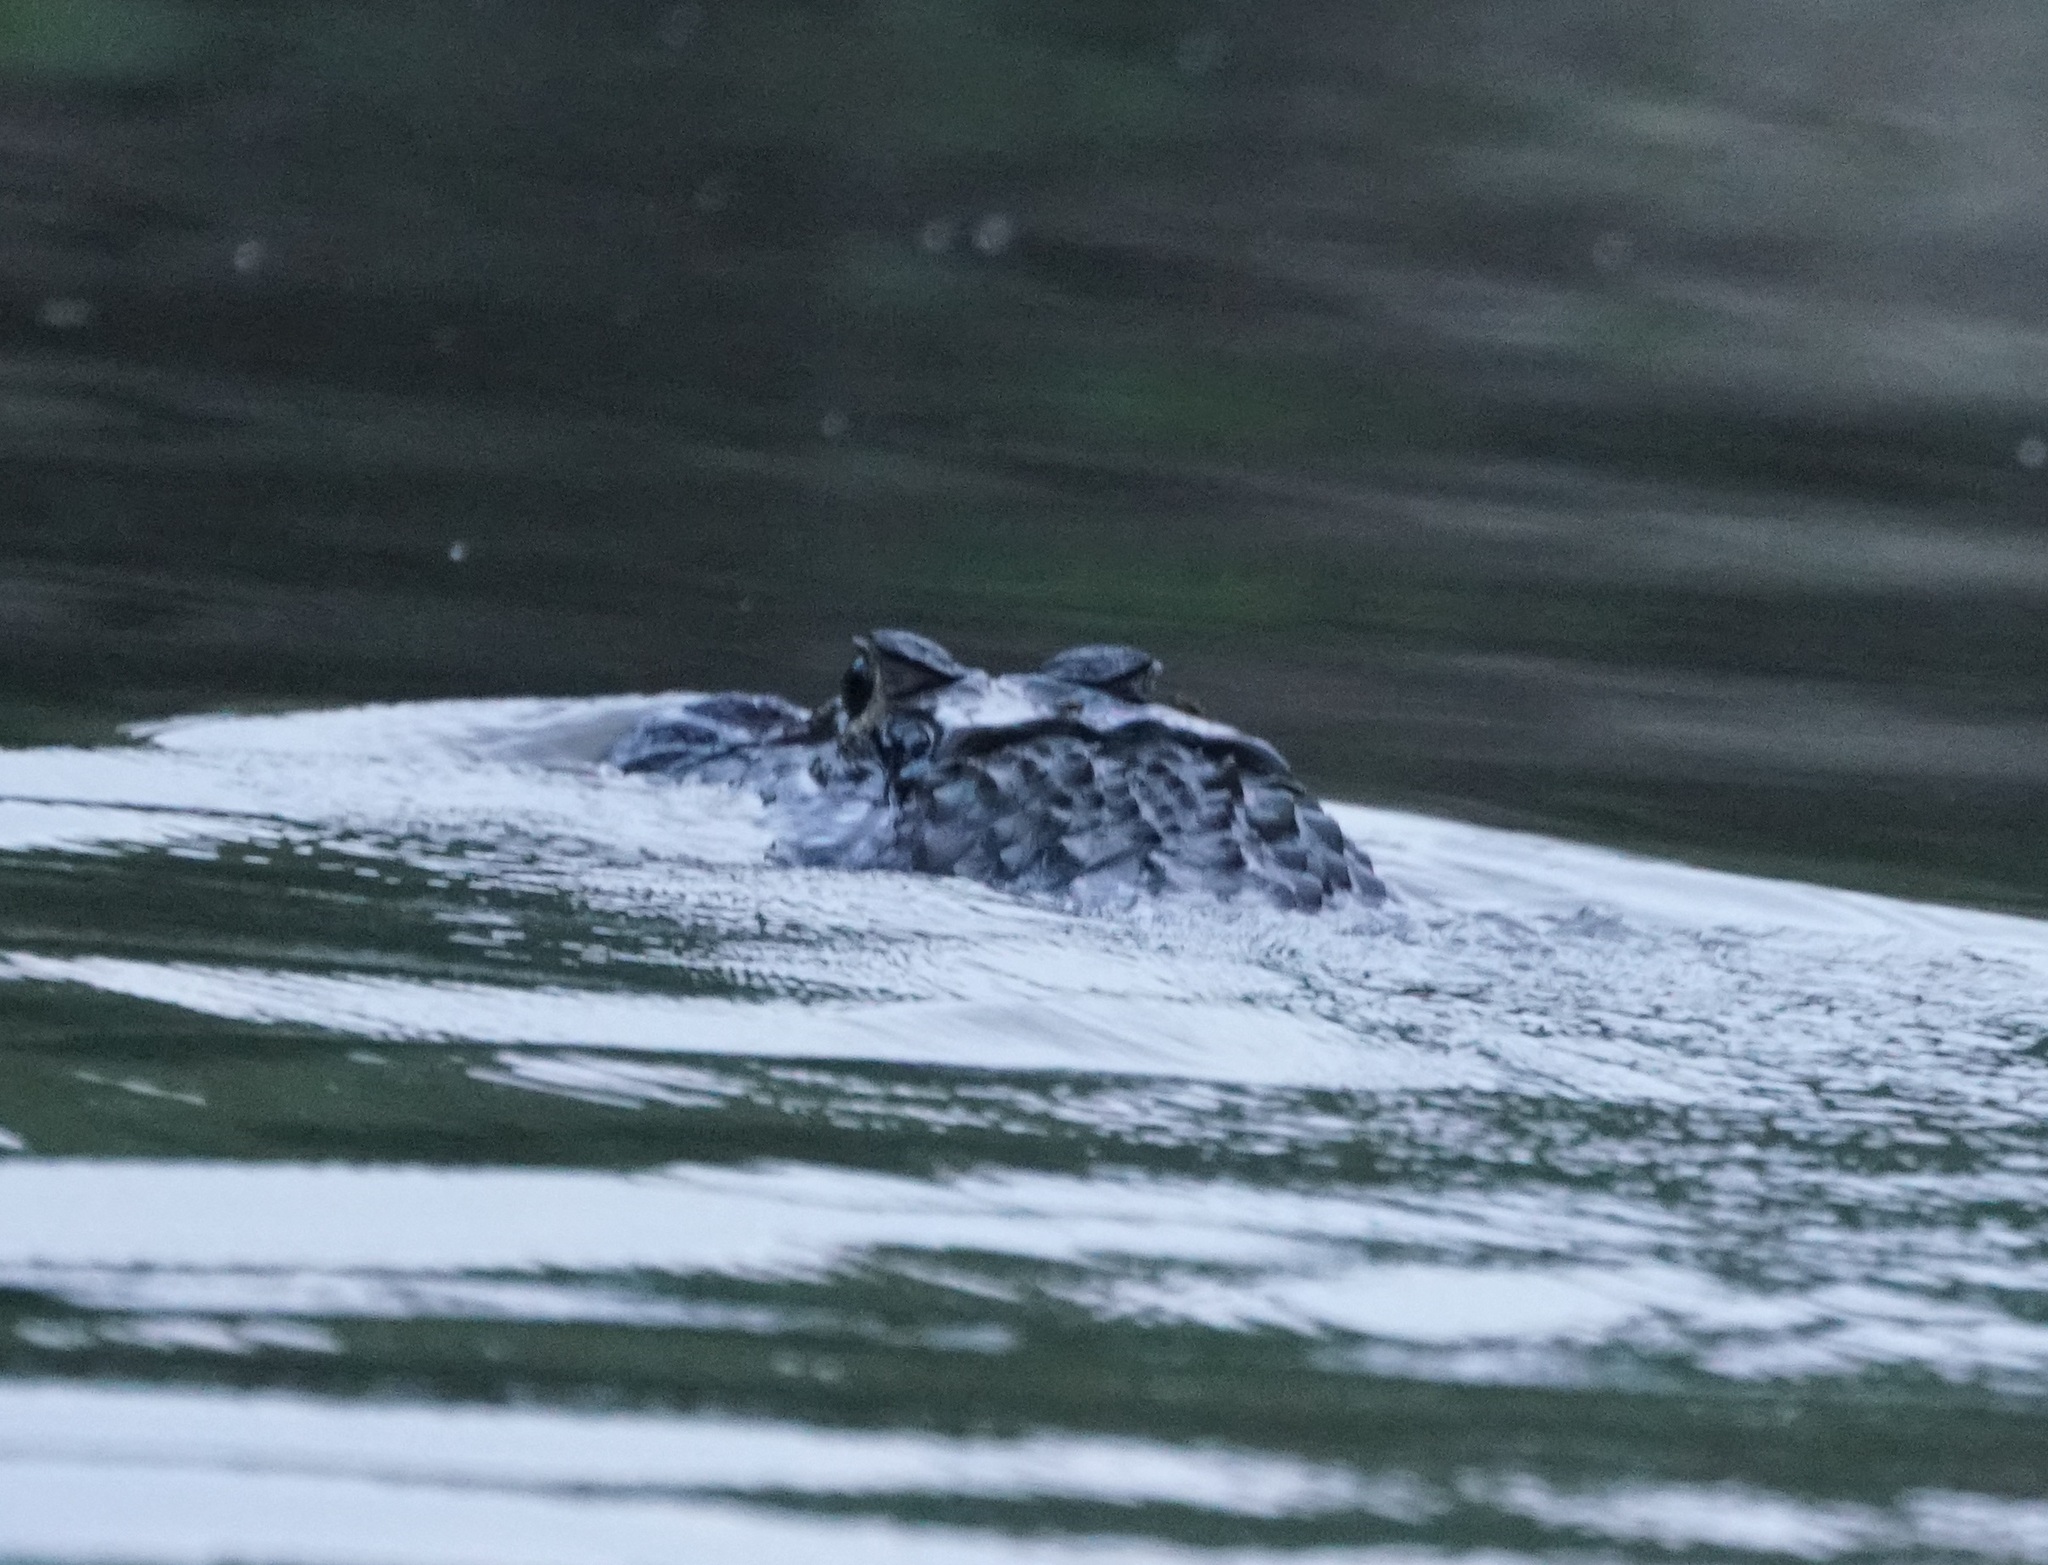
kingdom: Animalia
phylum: Chordata
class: Crocodylia
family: Alligatoridae
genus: Melanosuchus
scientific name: Melanosuchus niger
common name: Black caiman
